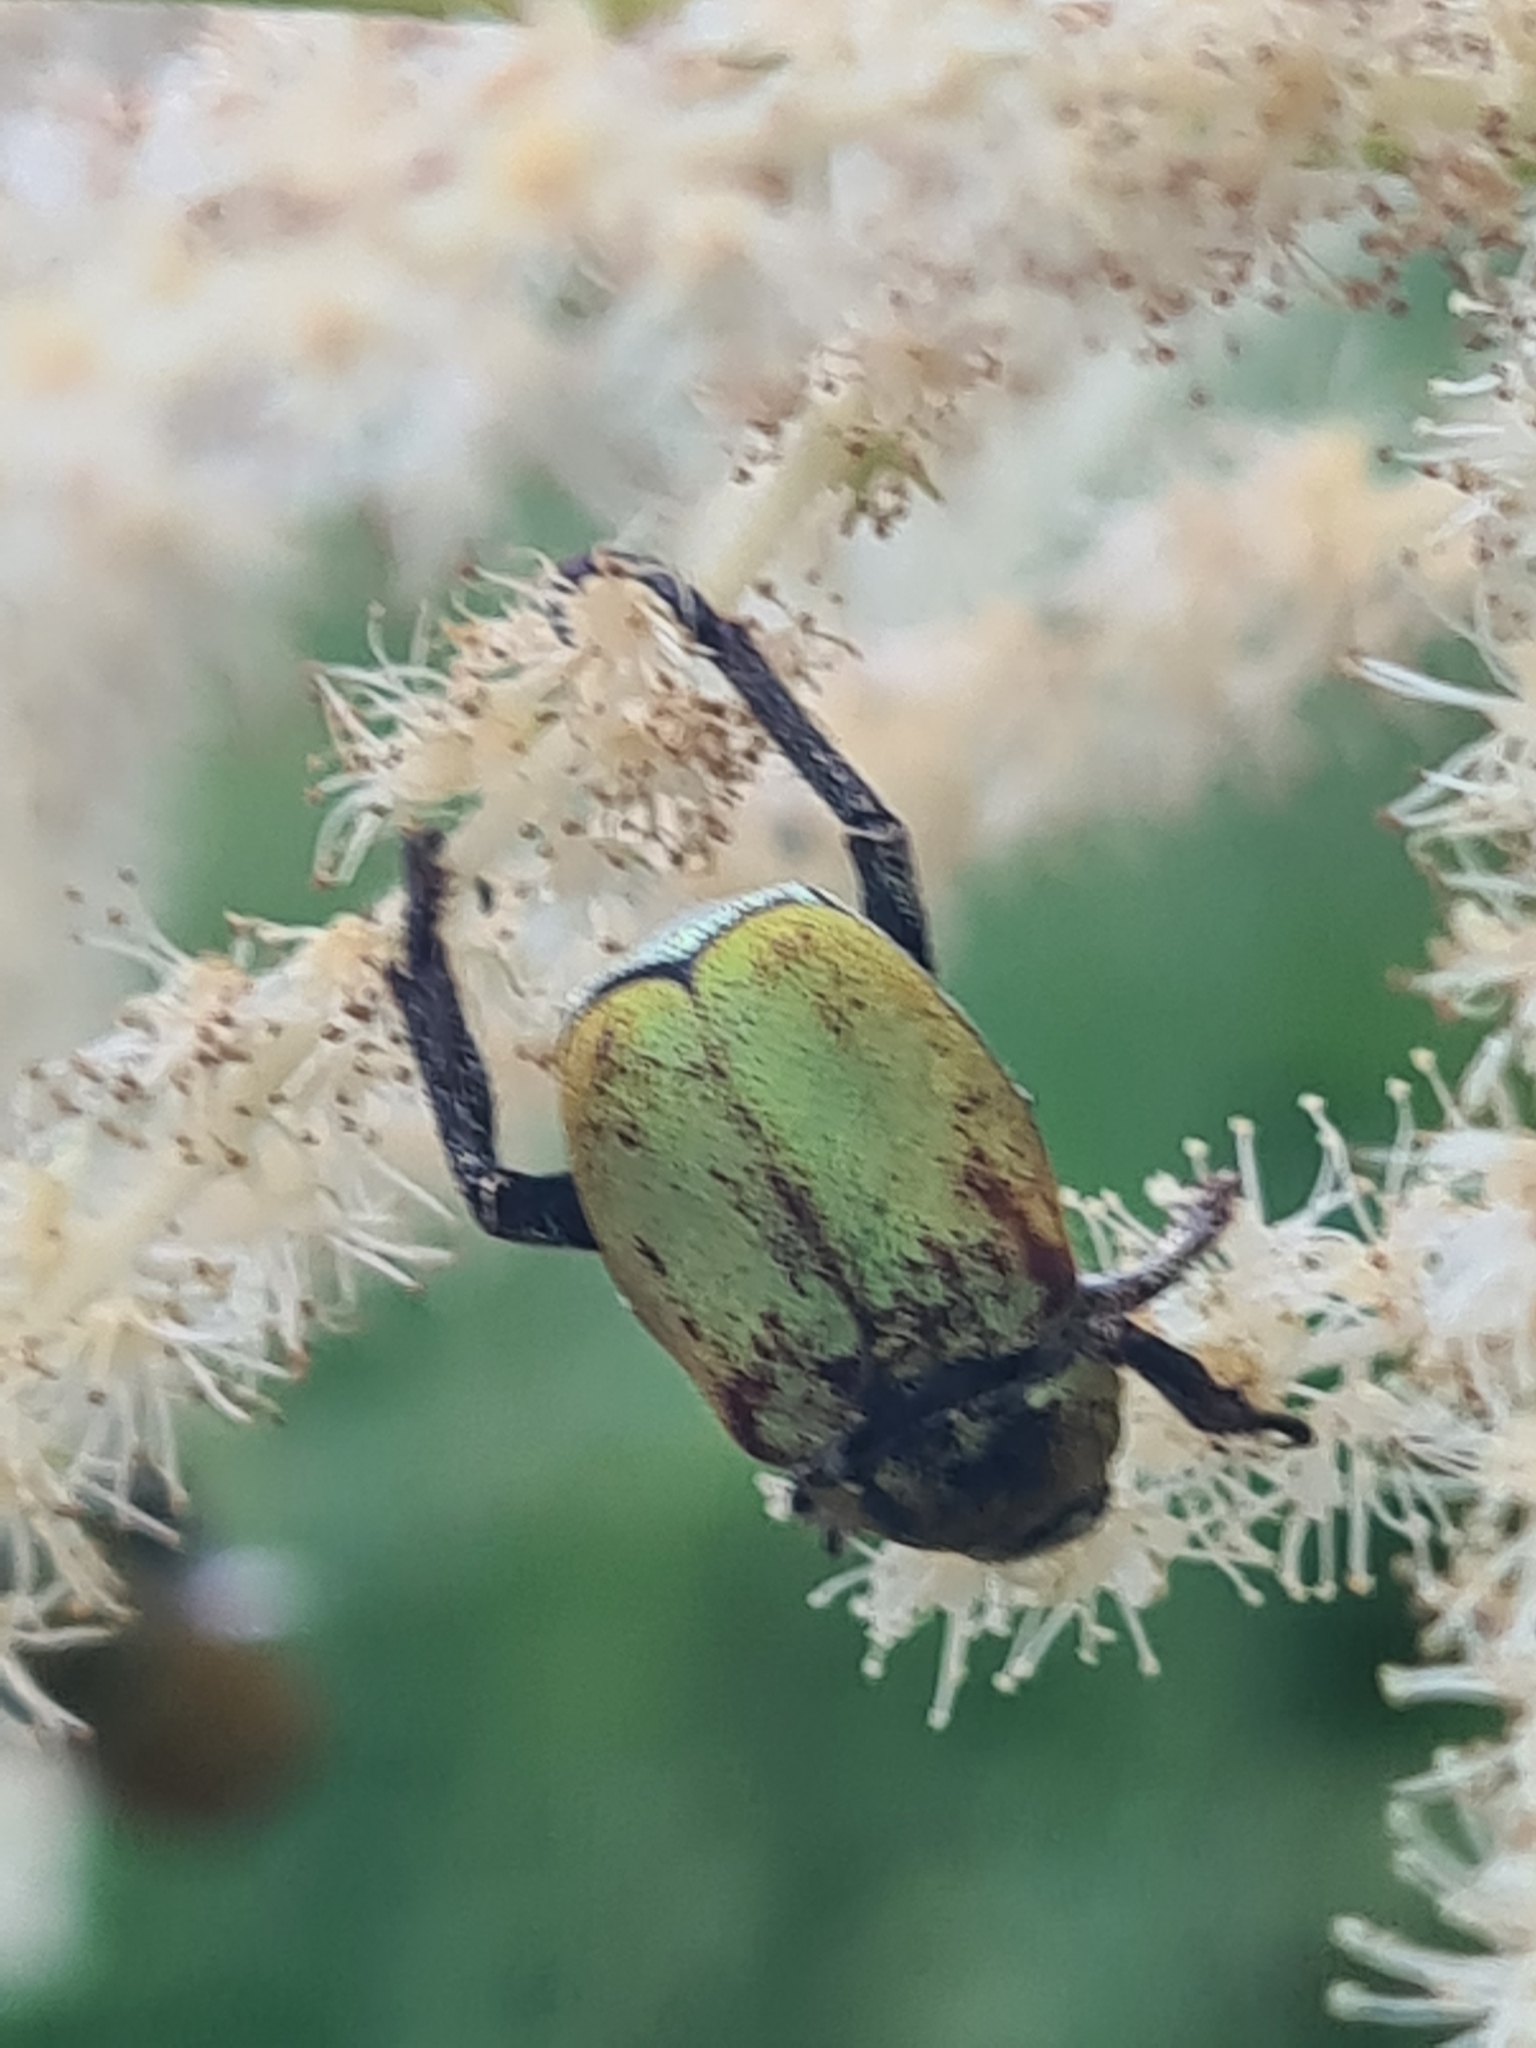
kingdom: Animalia
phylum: Arthropoda
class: Insecta
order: Coleoptera
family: Scarabaeidae
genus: Hoplia
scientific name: Hoplia argentea
